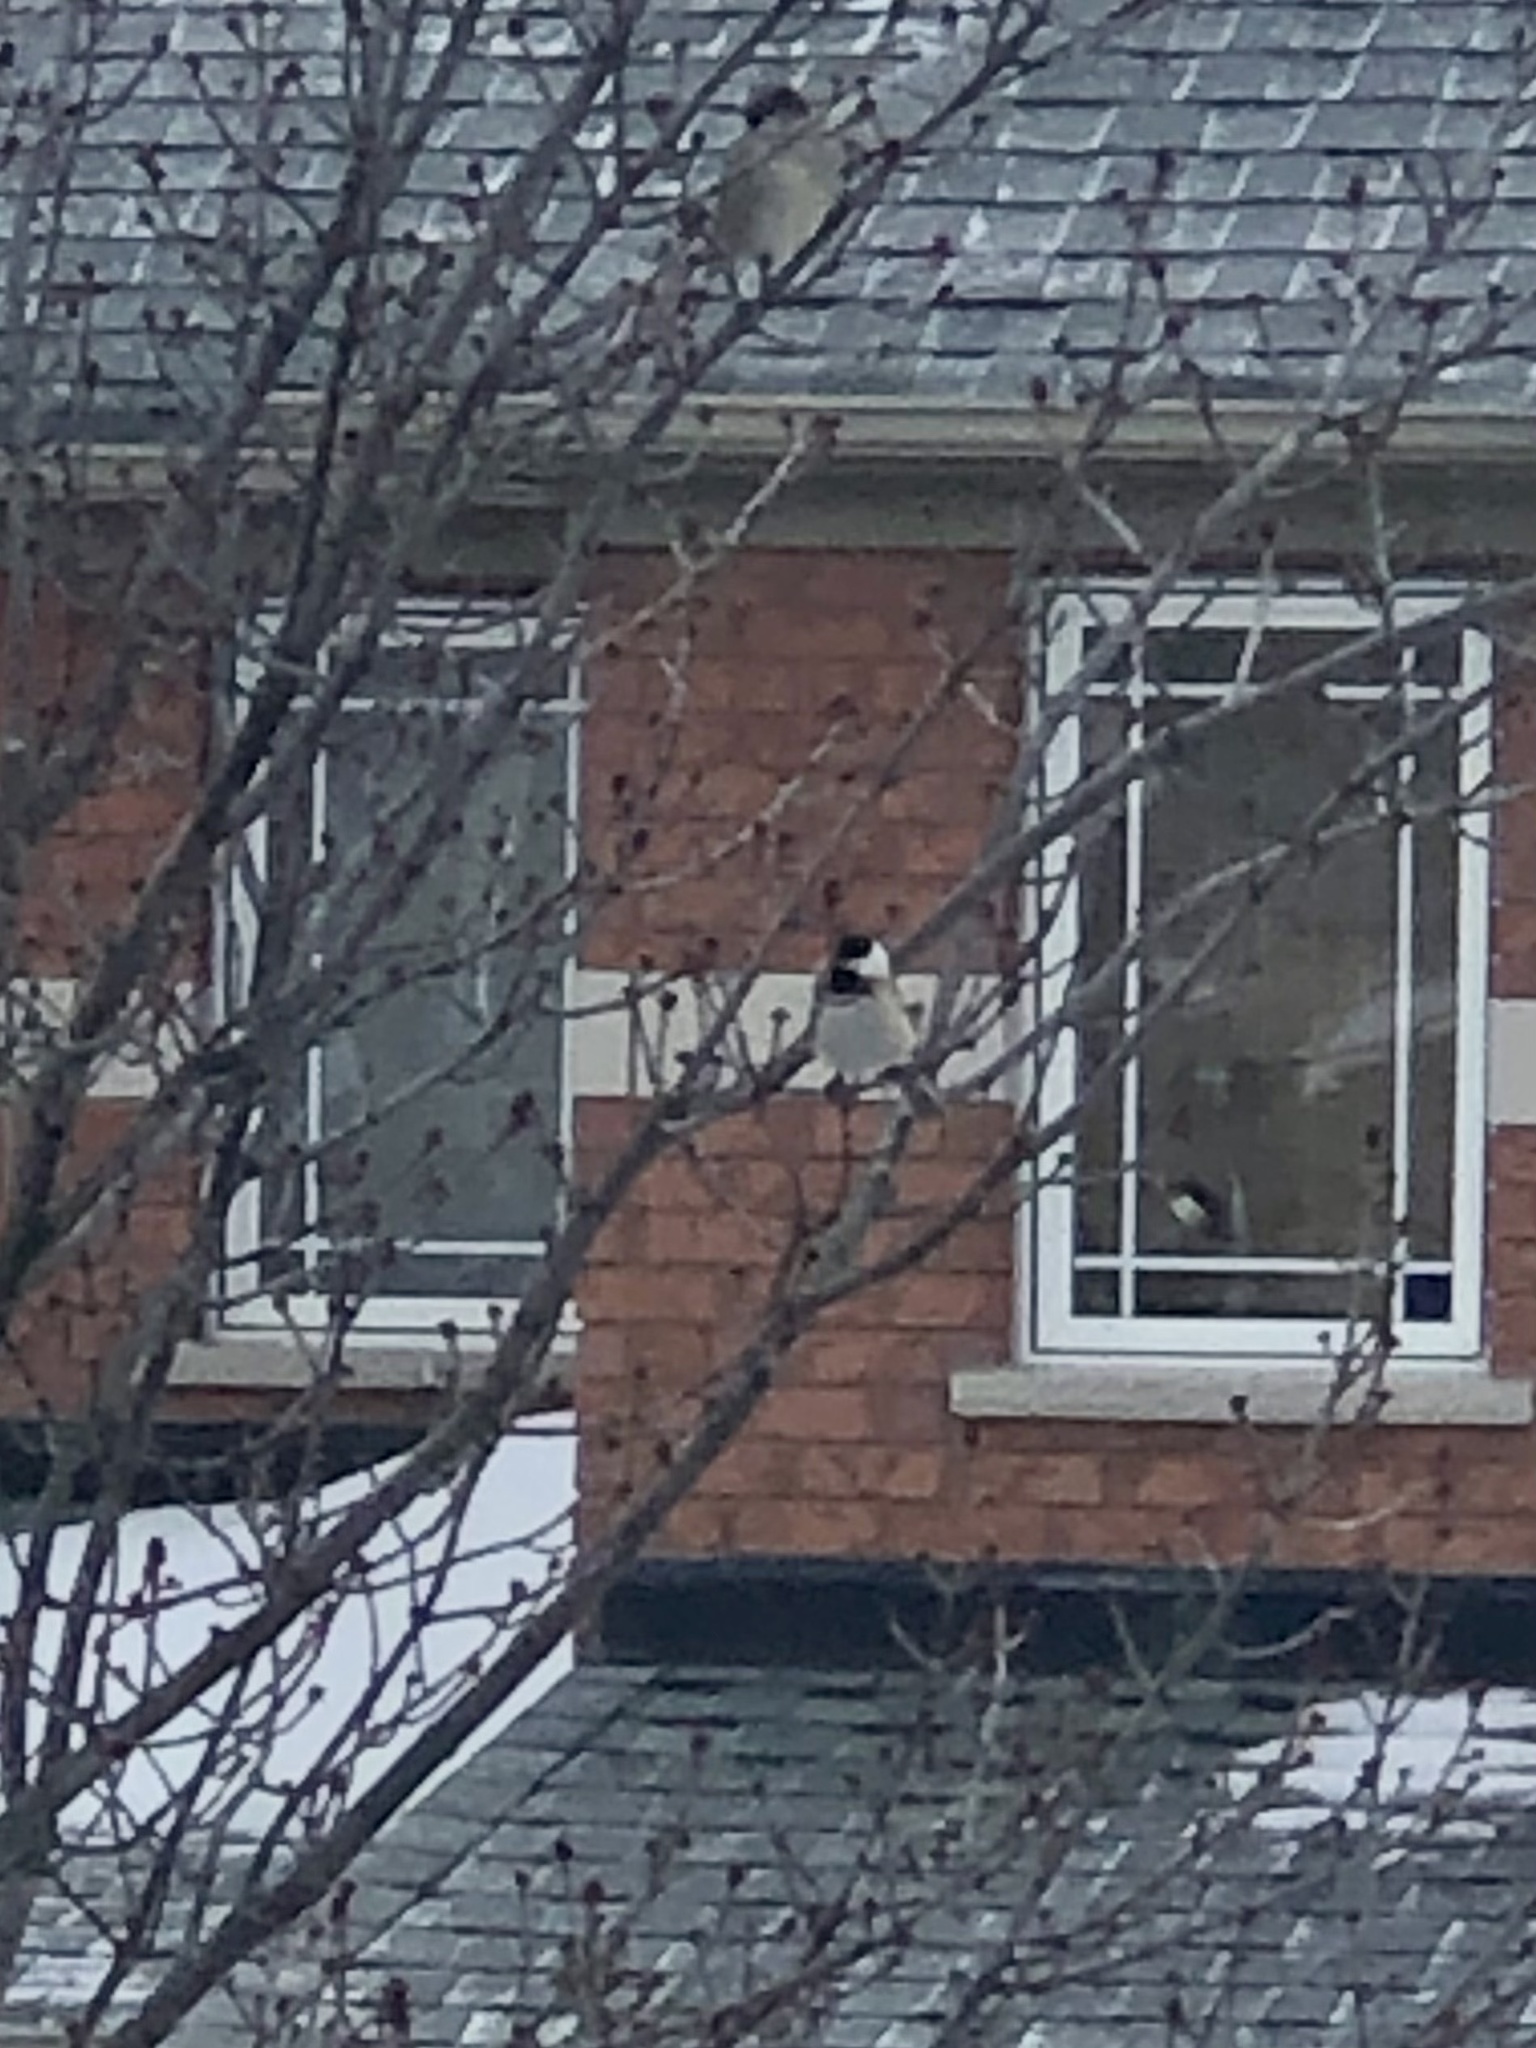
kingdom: Animalia
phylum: Chordata
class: Aves
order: Passeriformes
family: Paridae
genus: Poecile
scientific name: Poecile atricapillus
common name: Black-capped chickadee
